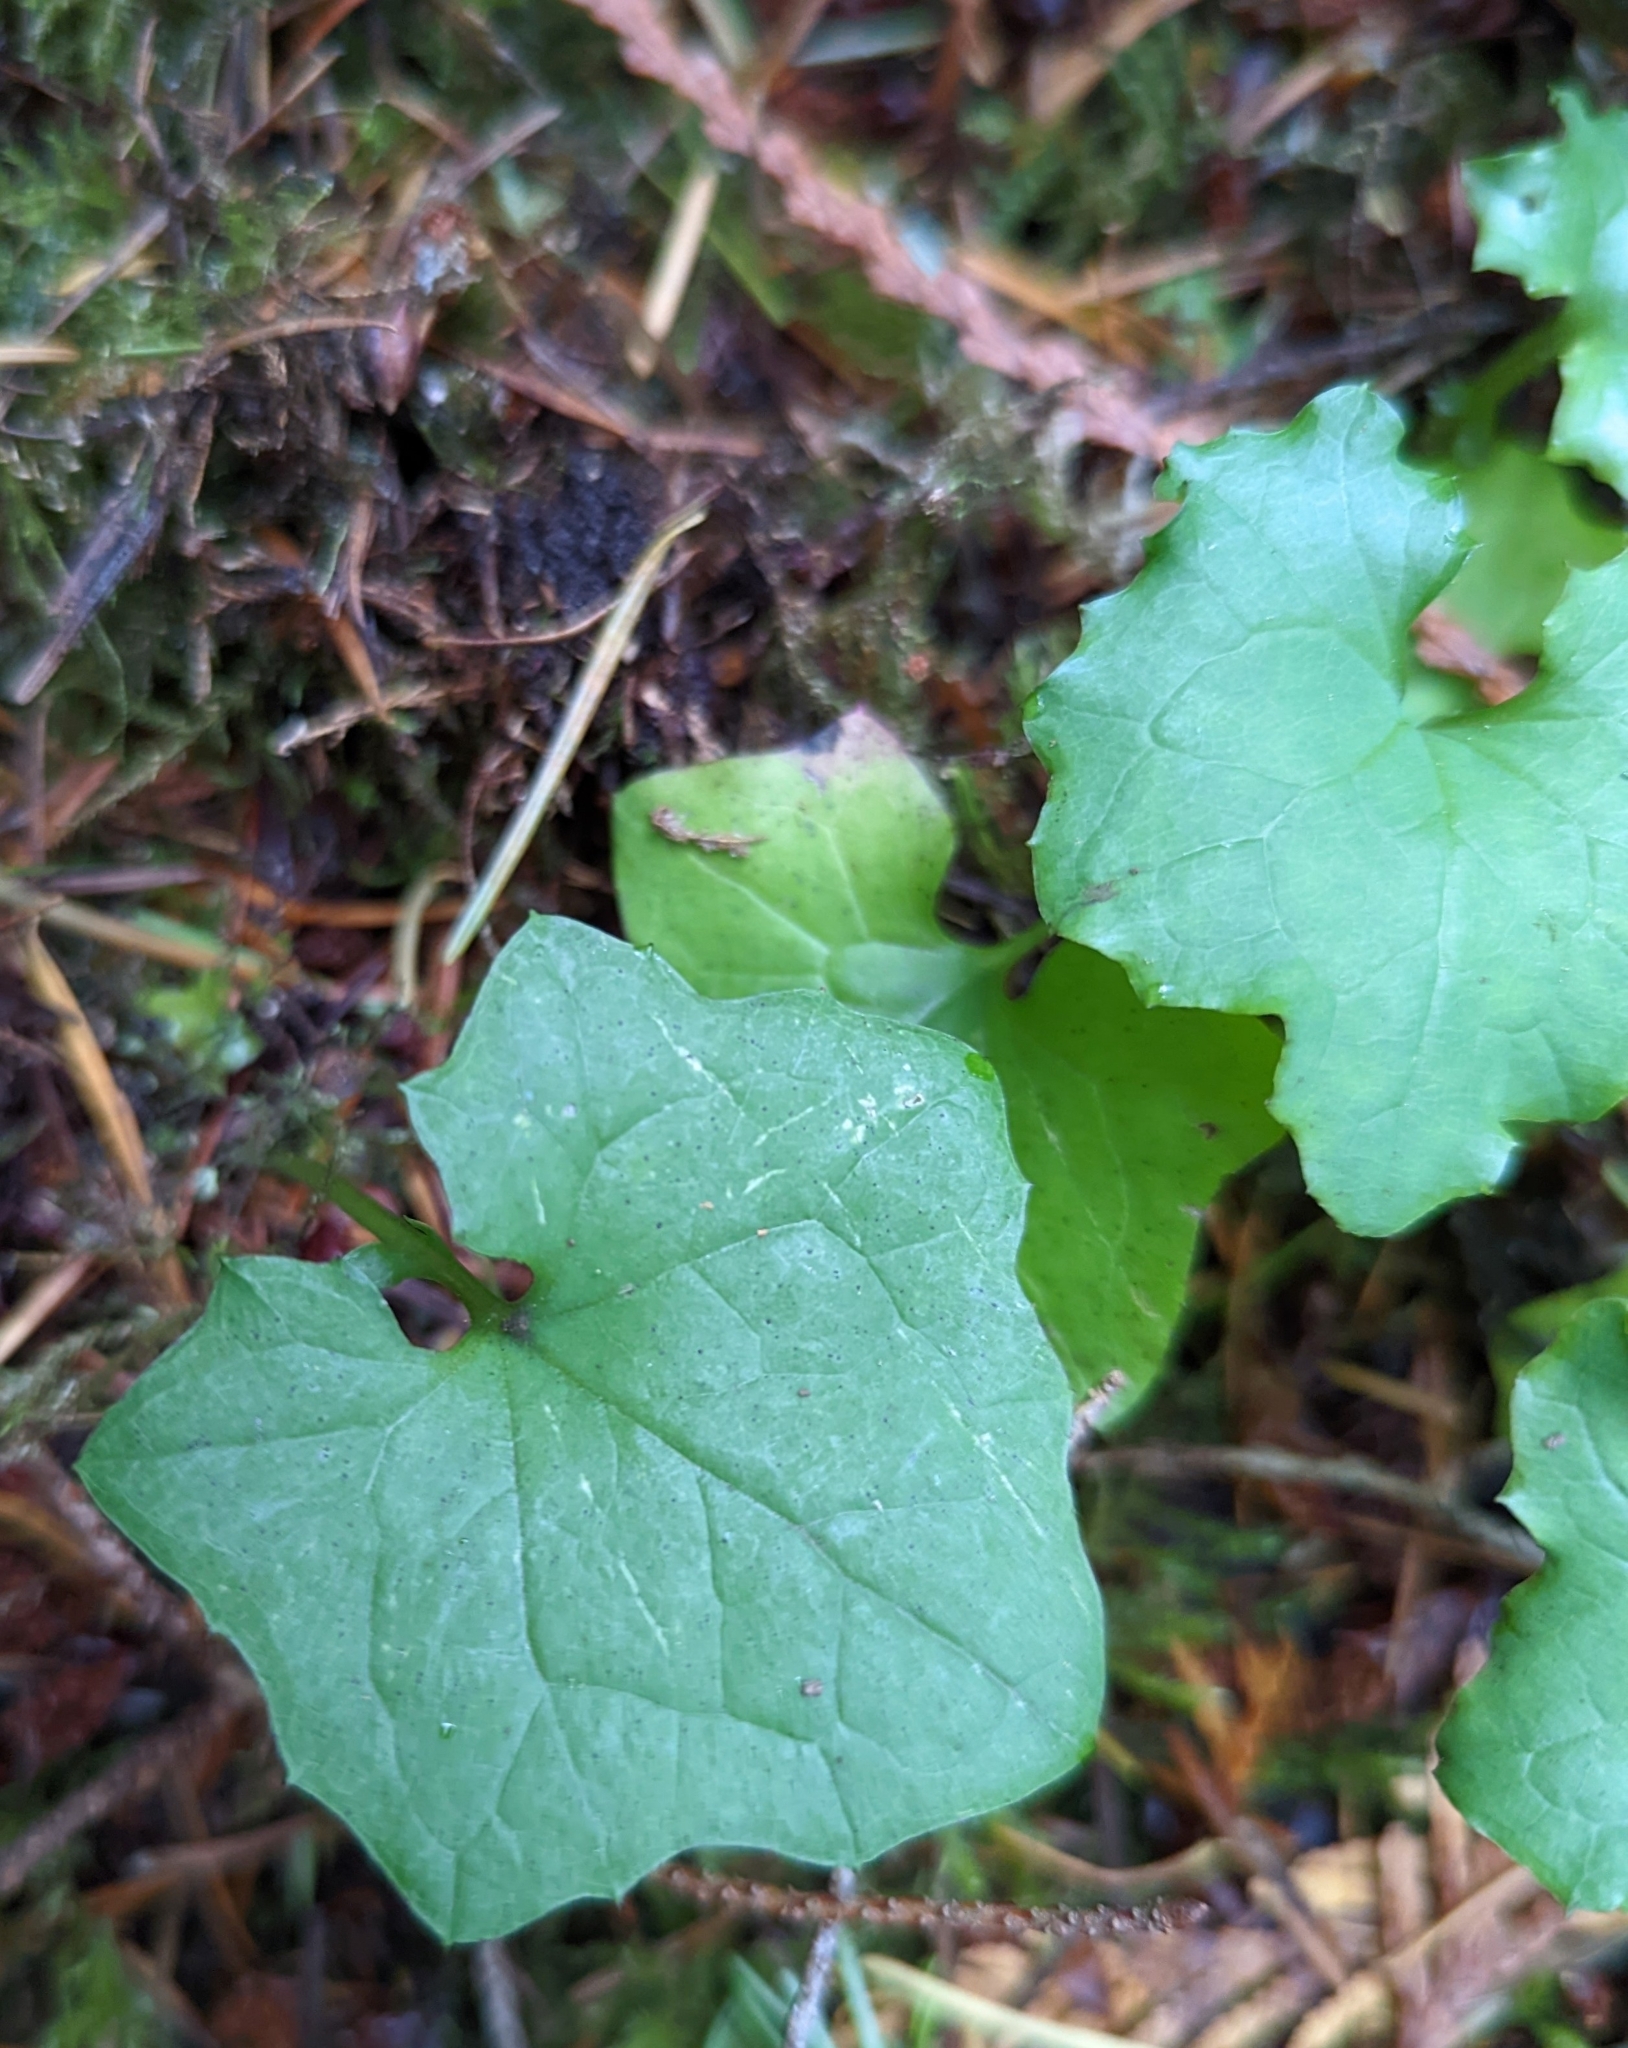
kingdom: Plantae
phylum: Tracheophyta
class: Magnoliopsida
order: Asterales
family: Asteraceae
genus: Mycelis
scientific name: Mycelis muralis
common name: Wall lettuce
